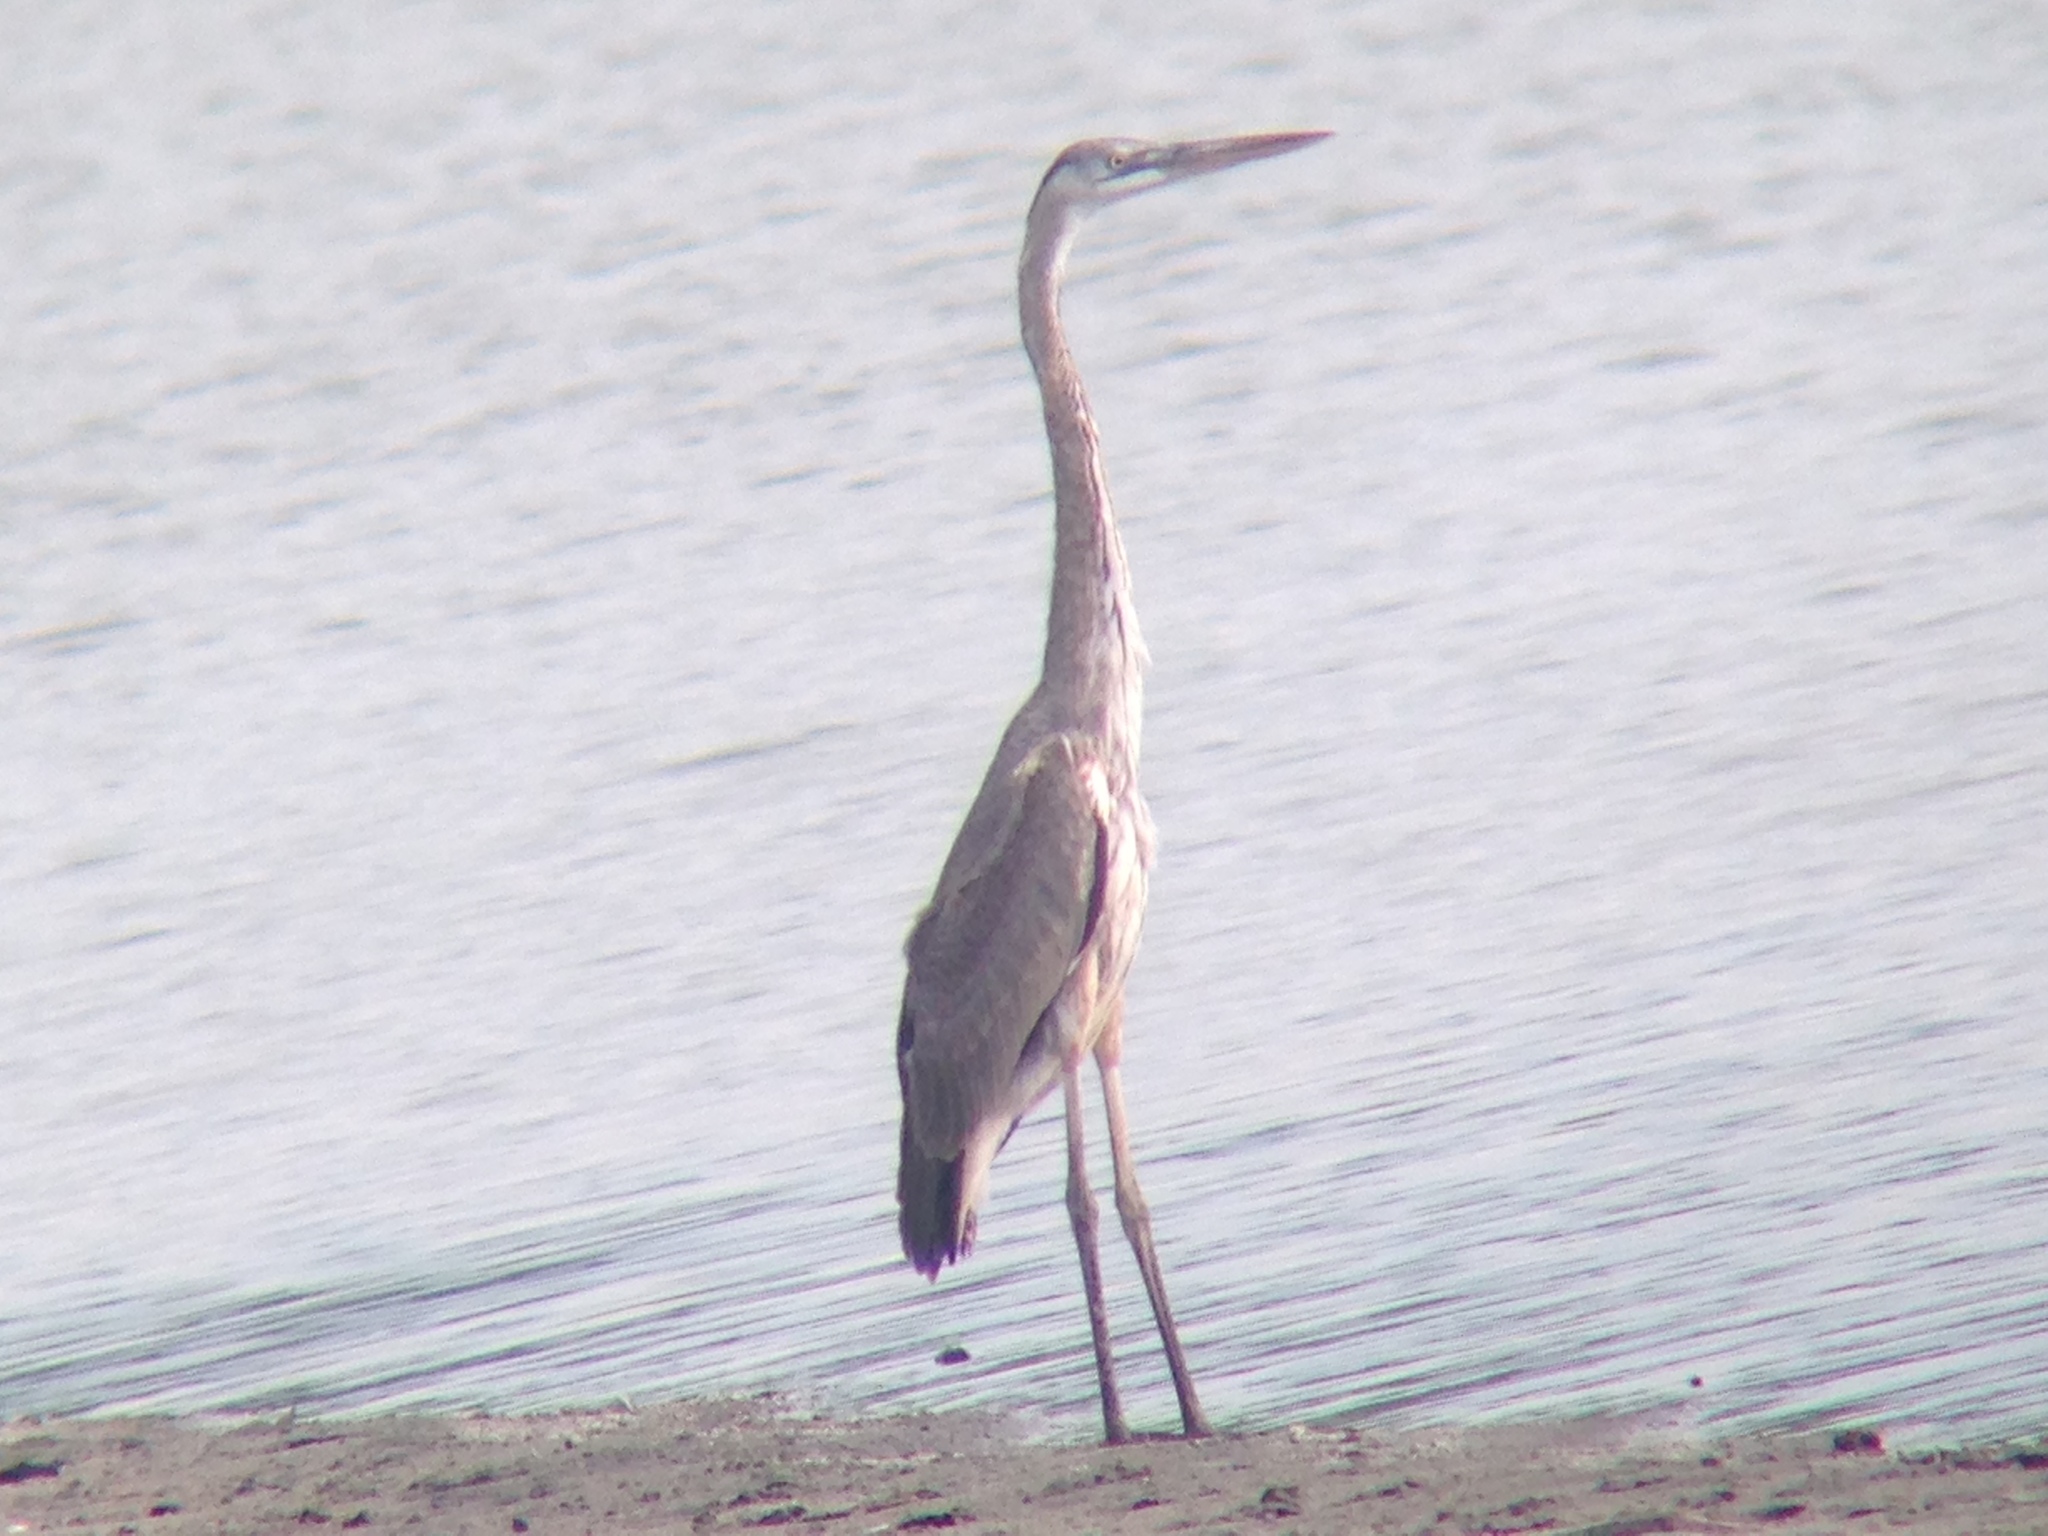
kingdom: Animalia
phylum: Chordata
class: Aves
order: Pelecaniformes
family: Ardeidae
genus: Ardea
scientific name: Ardea herodias
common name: Great blue heron
